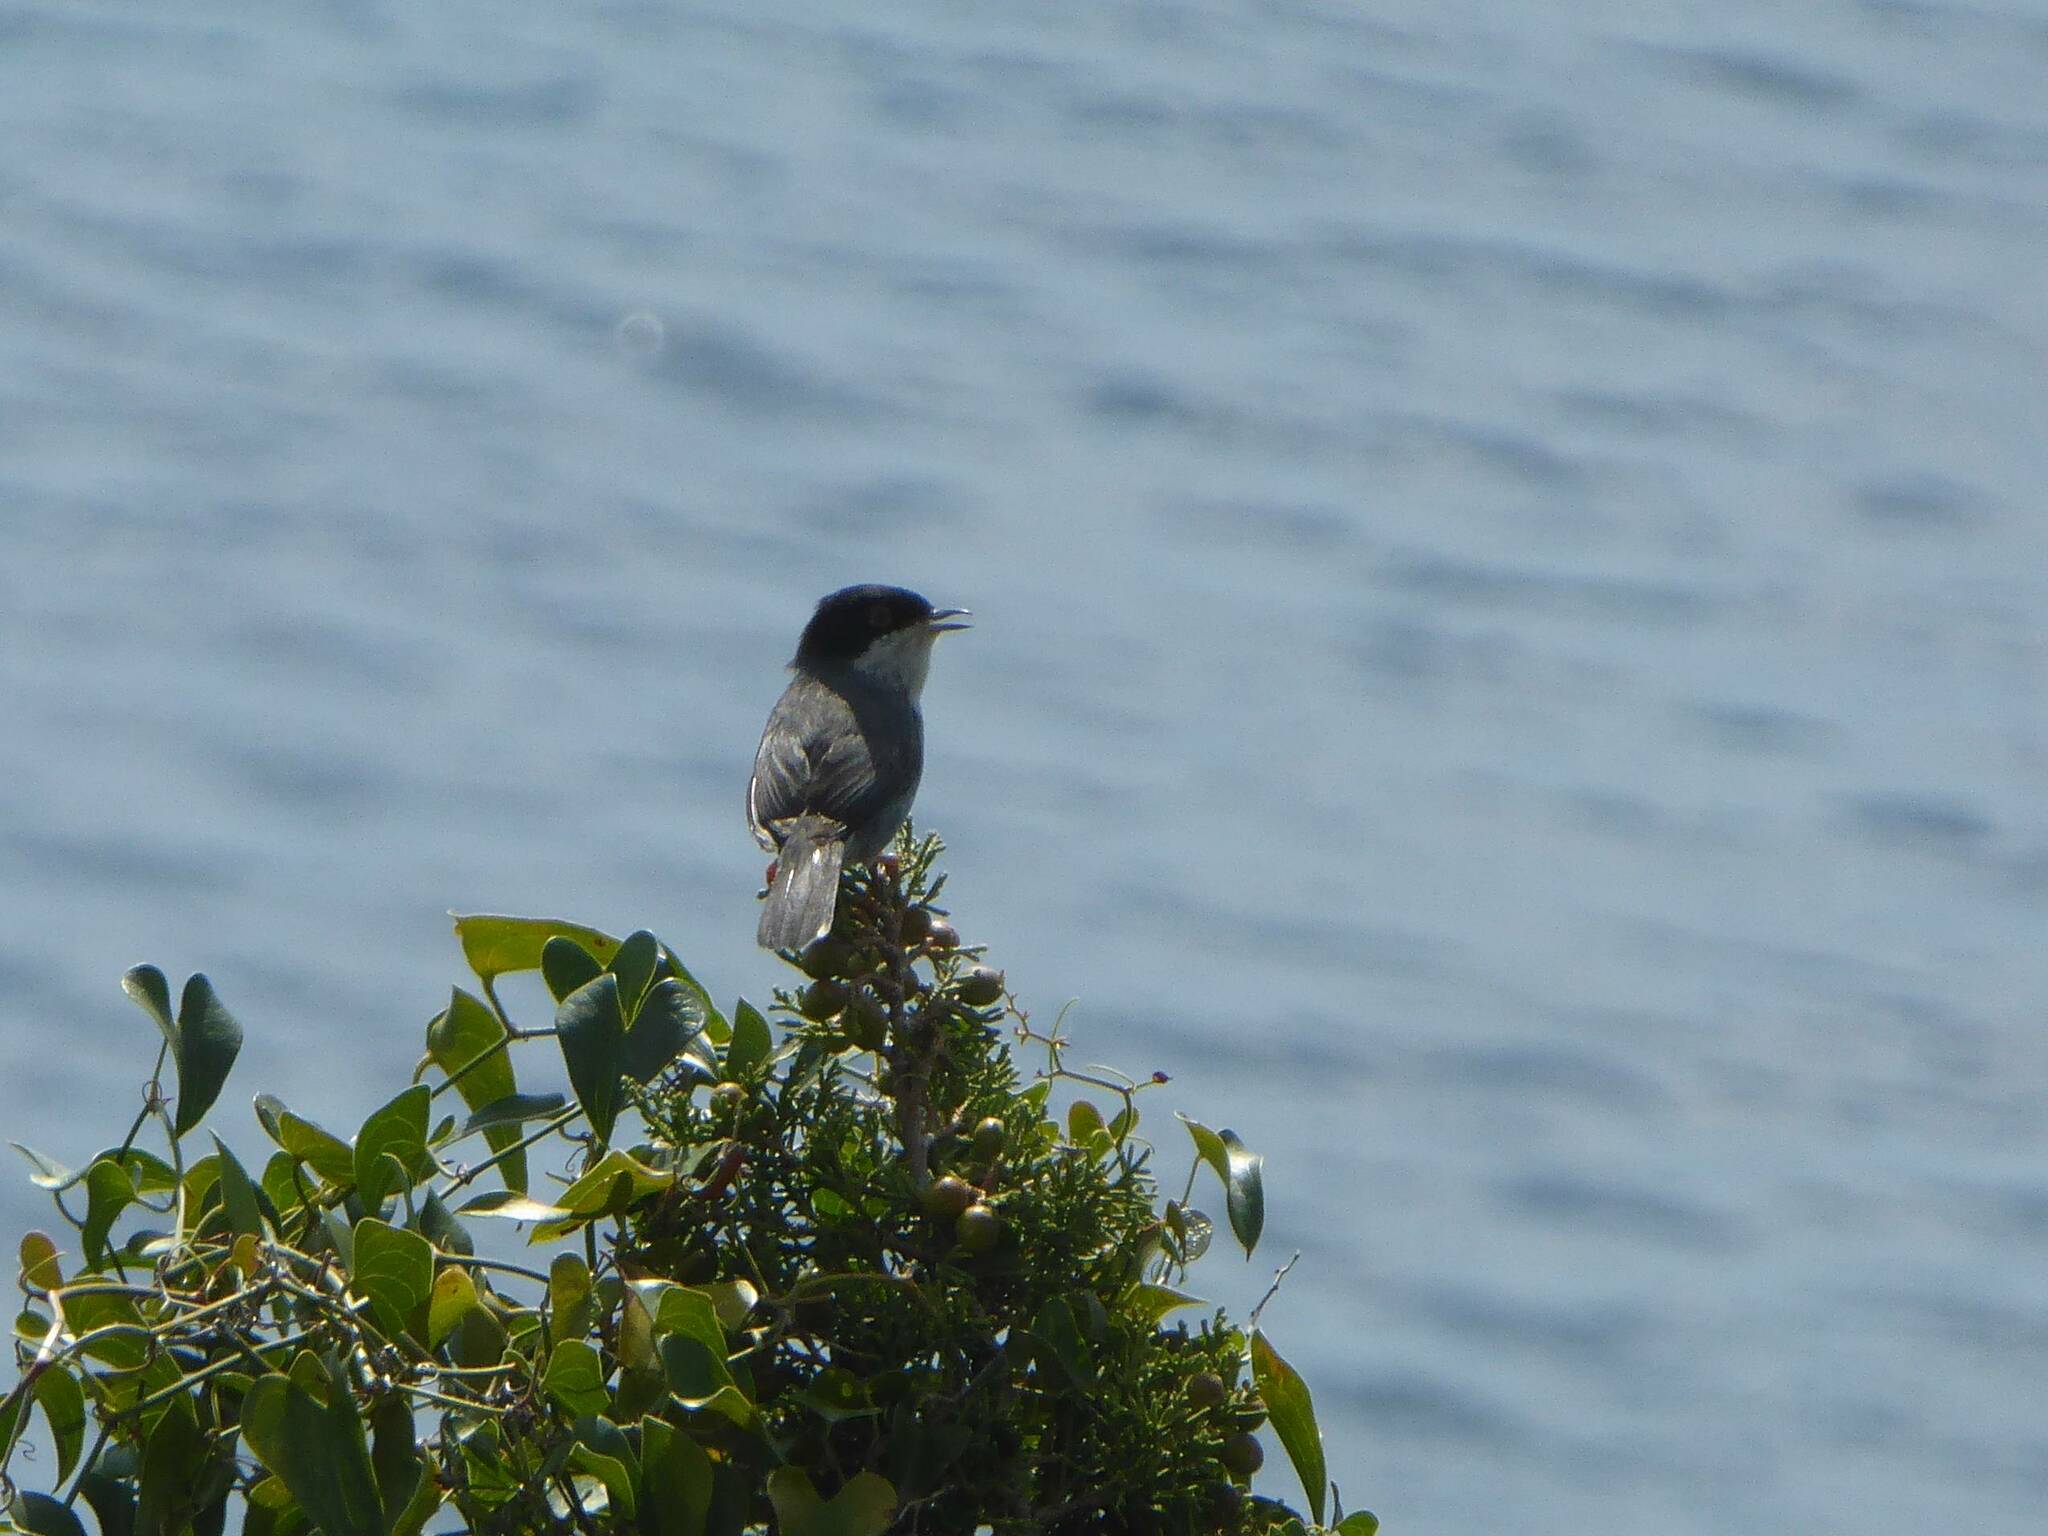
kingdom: Animalia
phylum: Chordata
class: Aves
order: Passeriformes
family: Sylviidae
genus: Curruca
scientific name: Curruca melanocephala
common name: Sardinian warbler
